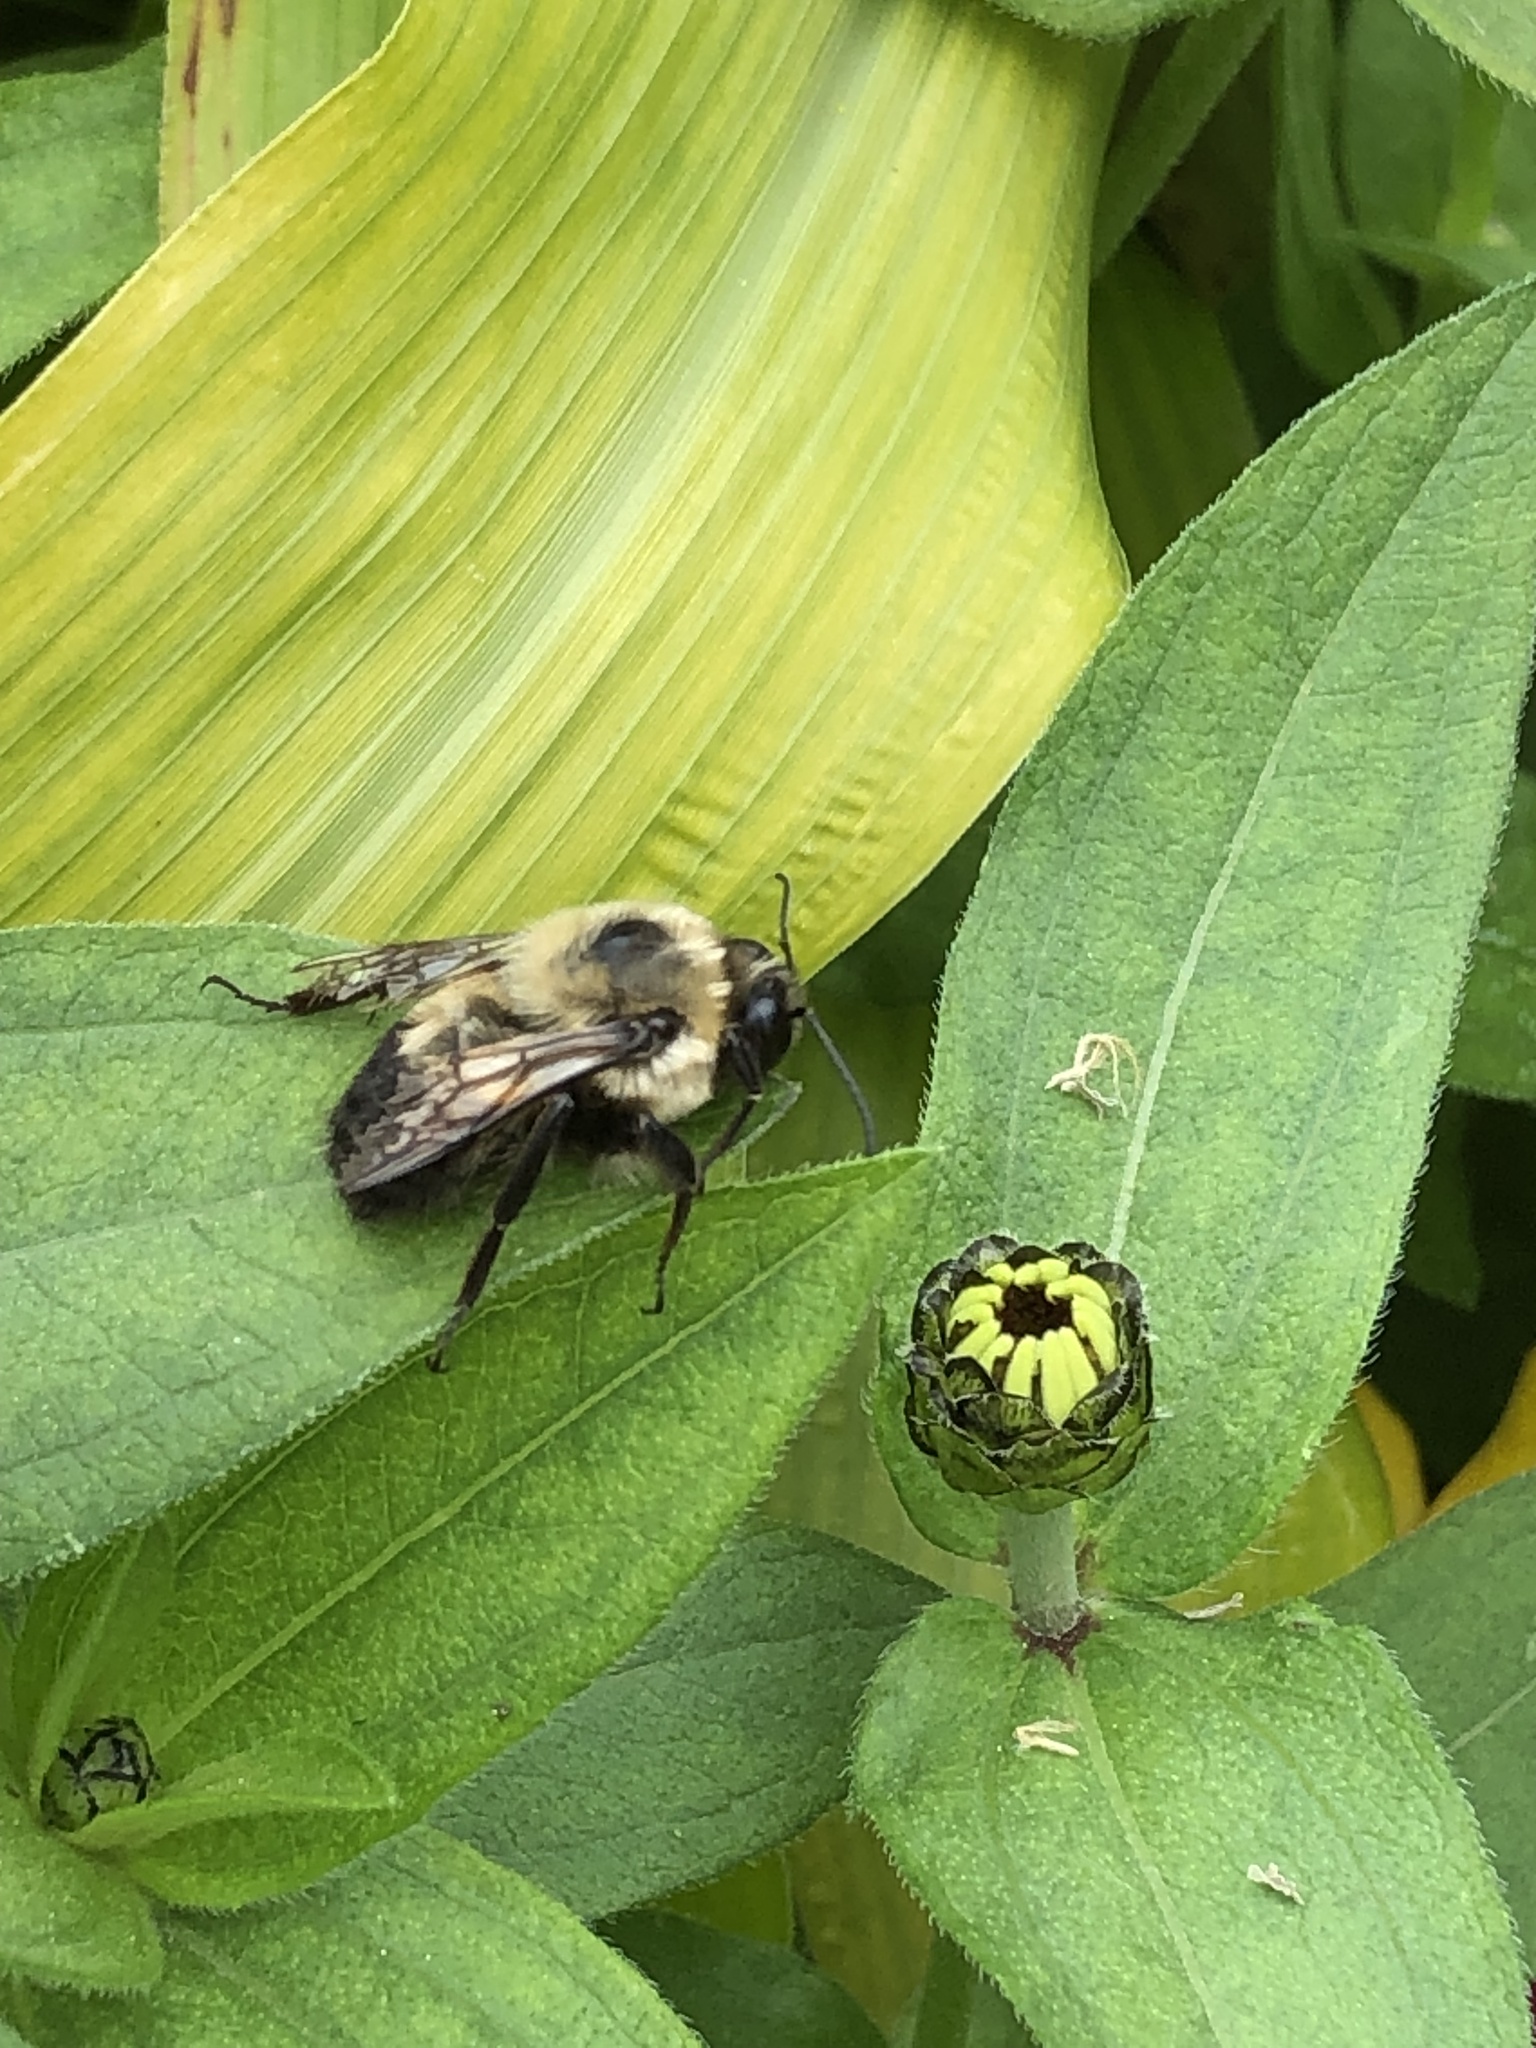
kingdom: Animalia
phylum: Arthropoda
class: Insecta
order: Hymenoptera
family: Apidae
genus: Bombus
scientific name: Bombus griseocollis
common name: Brown-belted bumble bee
